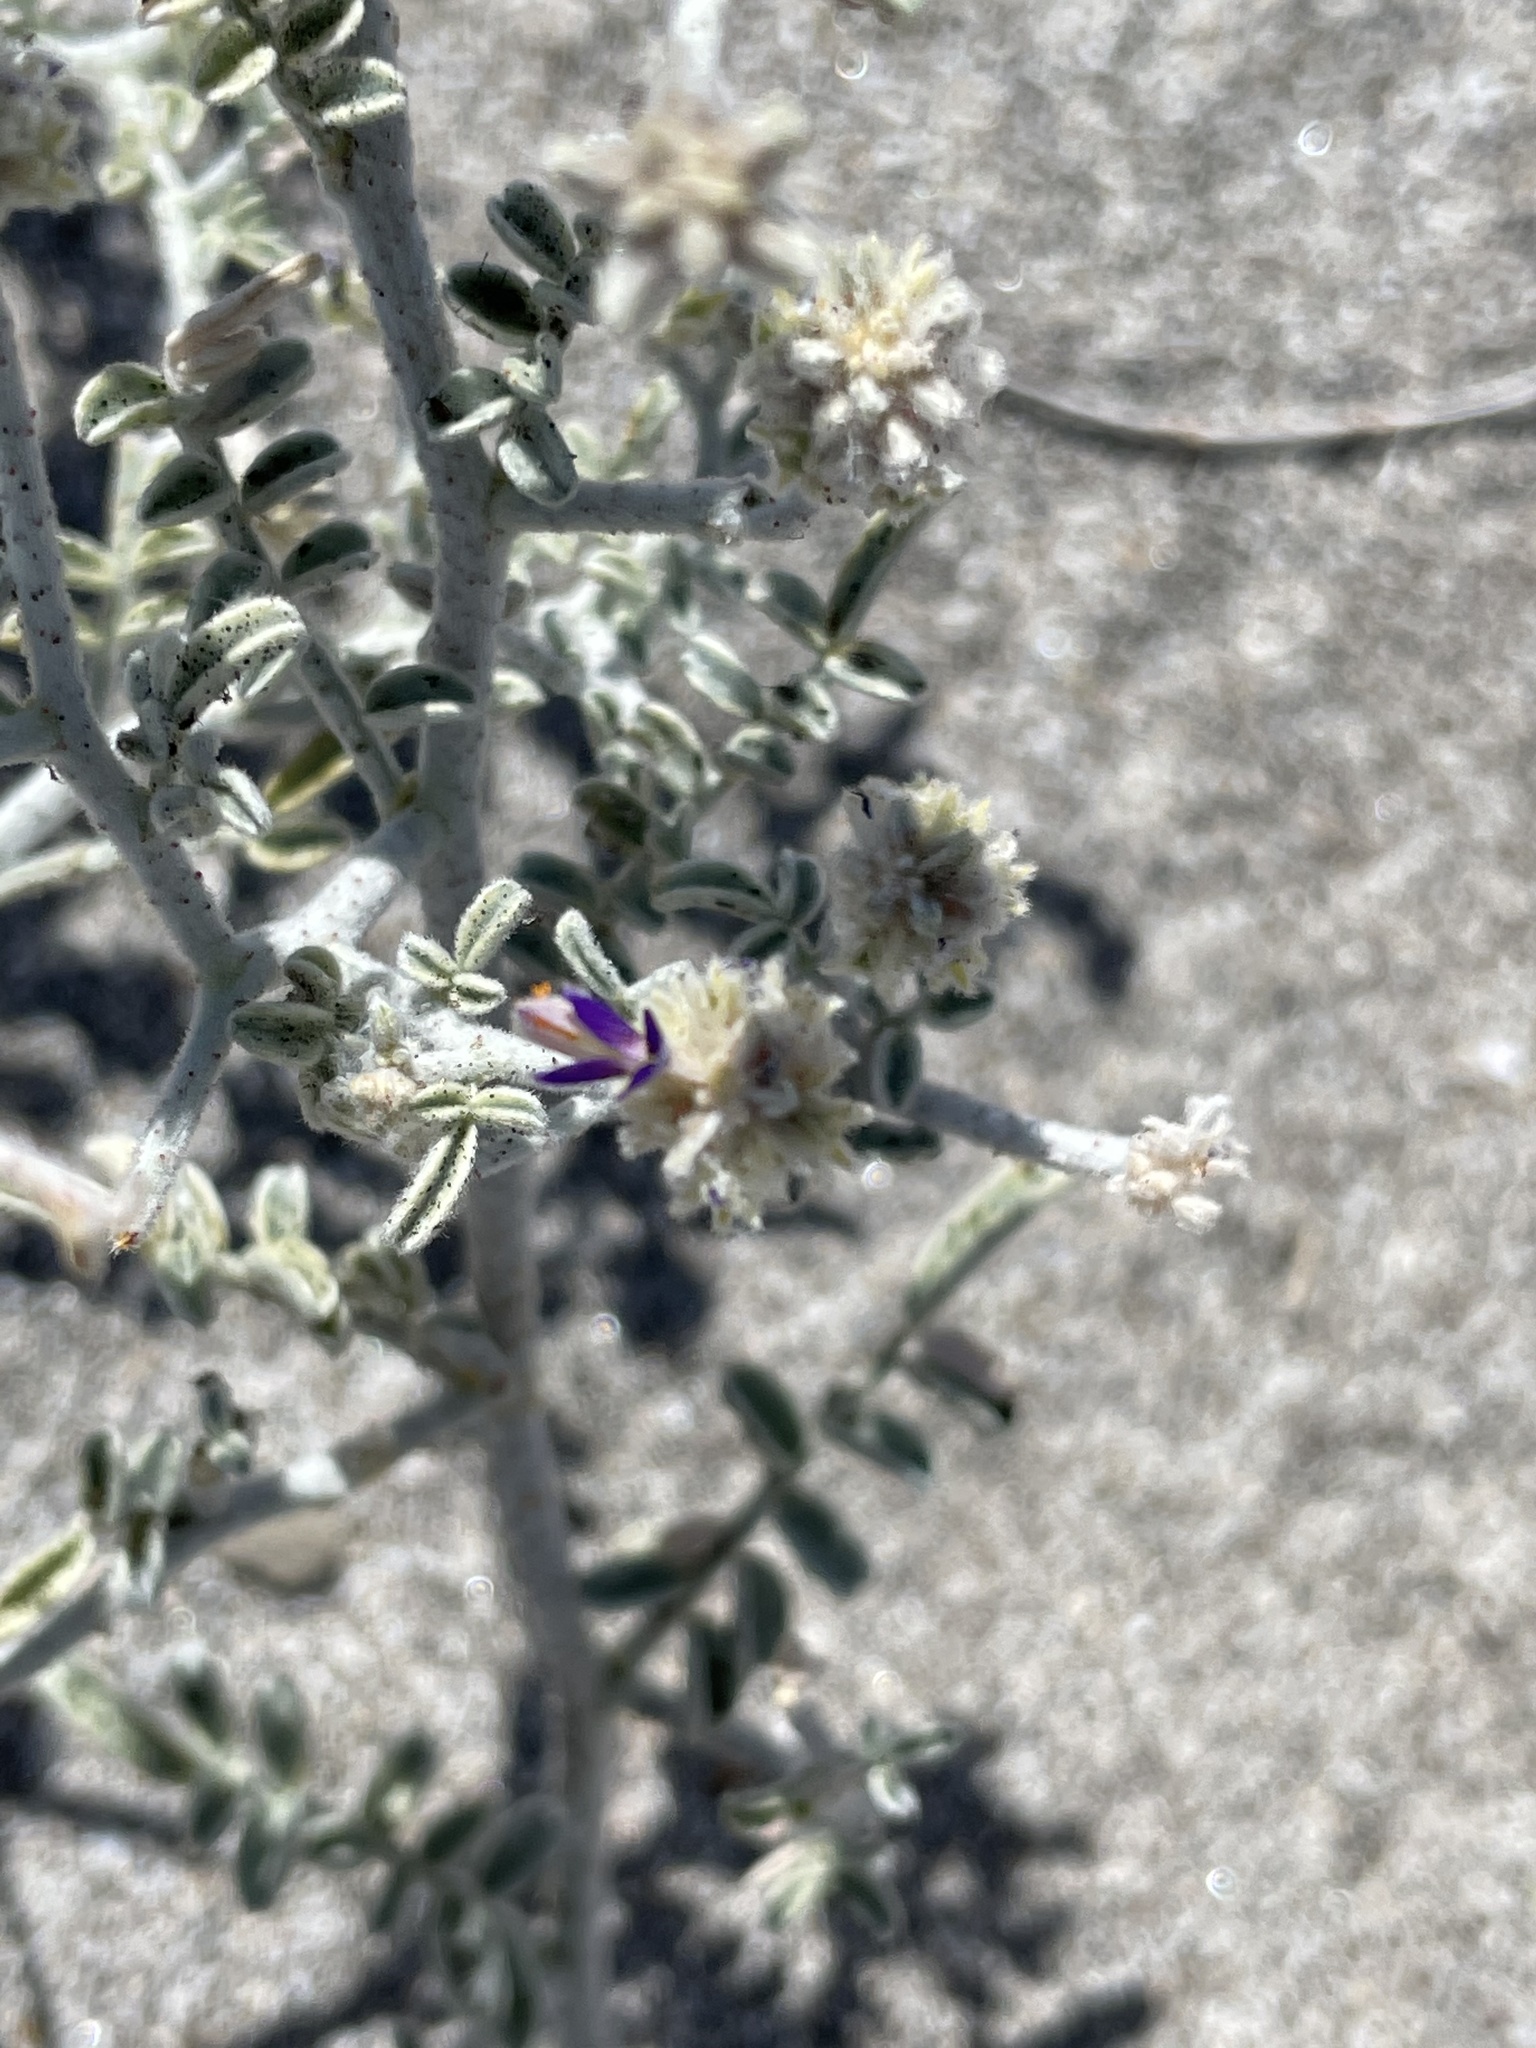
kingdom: Plantae
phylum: Tracheophyta
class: Magnoliopsida
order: Fabales
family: Fabaceae
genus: Psorothamnus
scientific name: Psorothamnus emoryi
